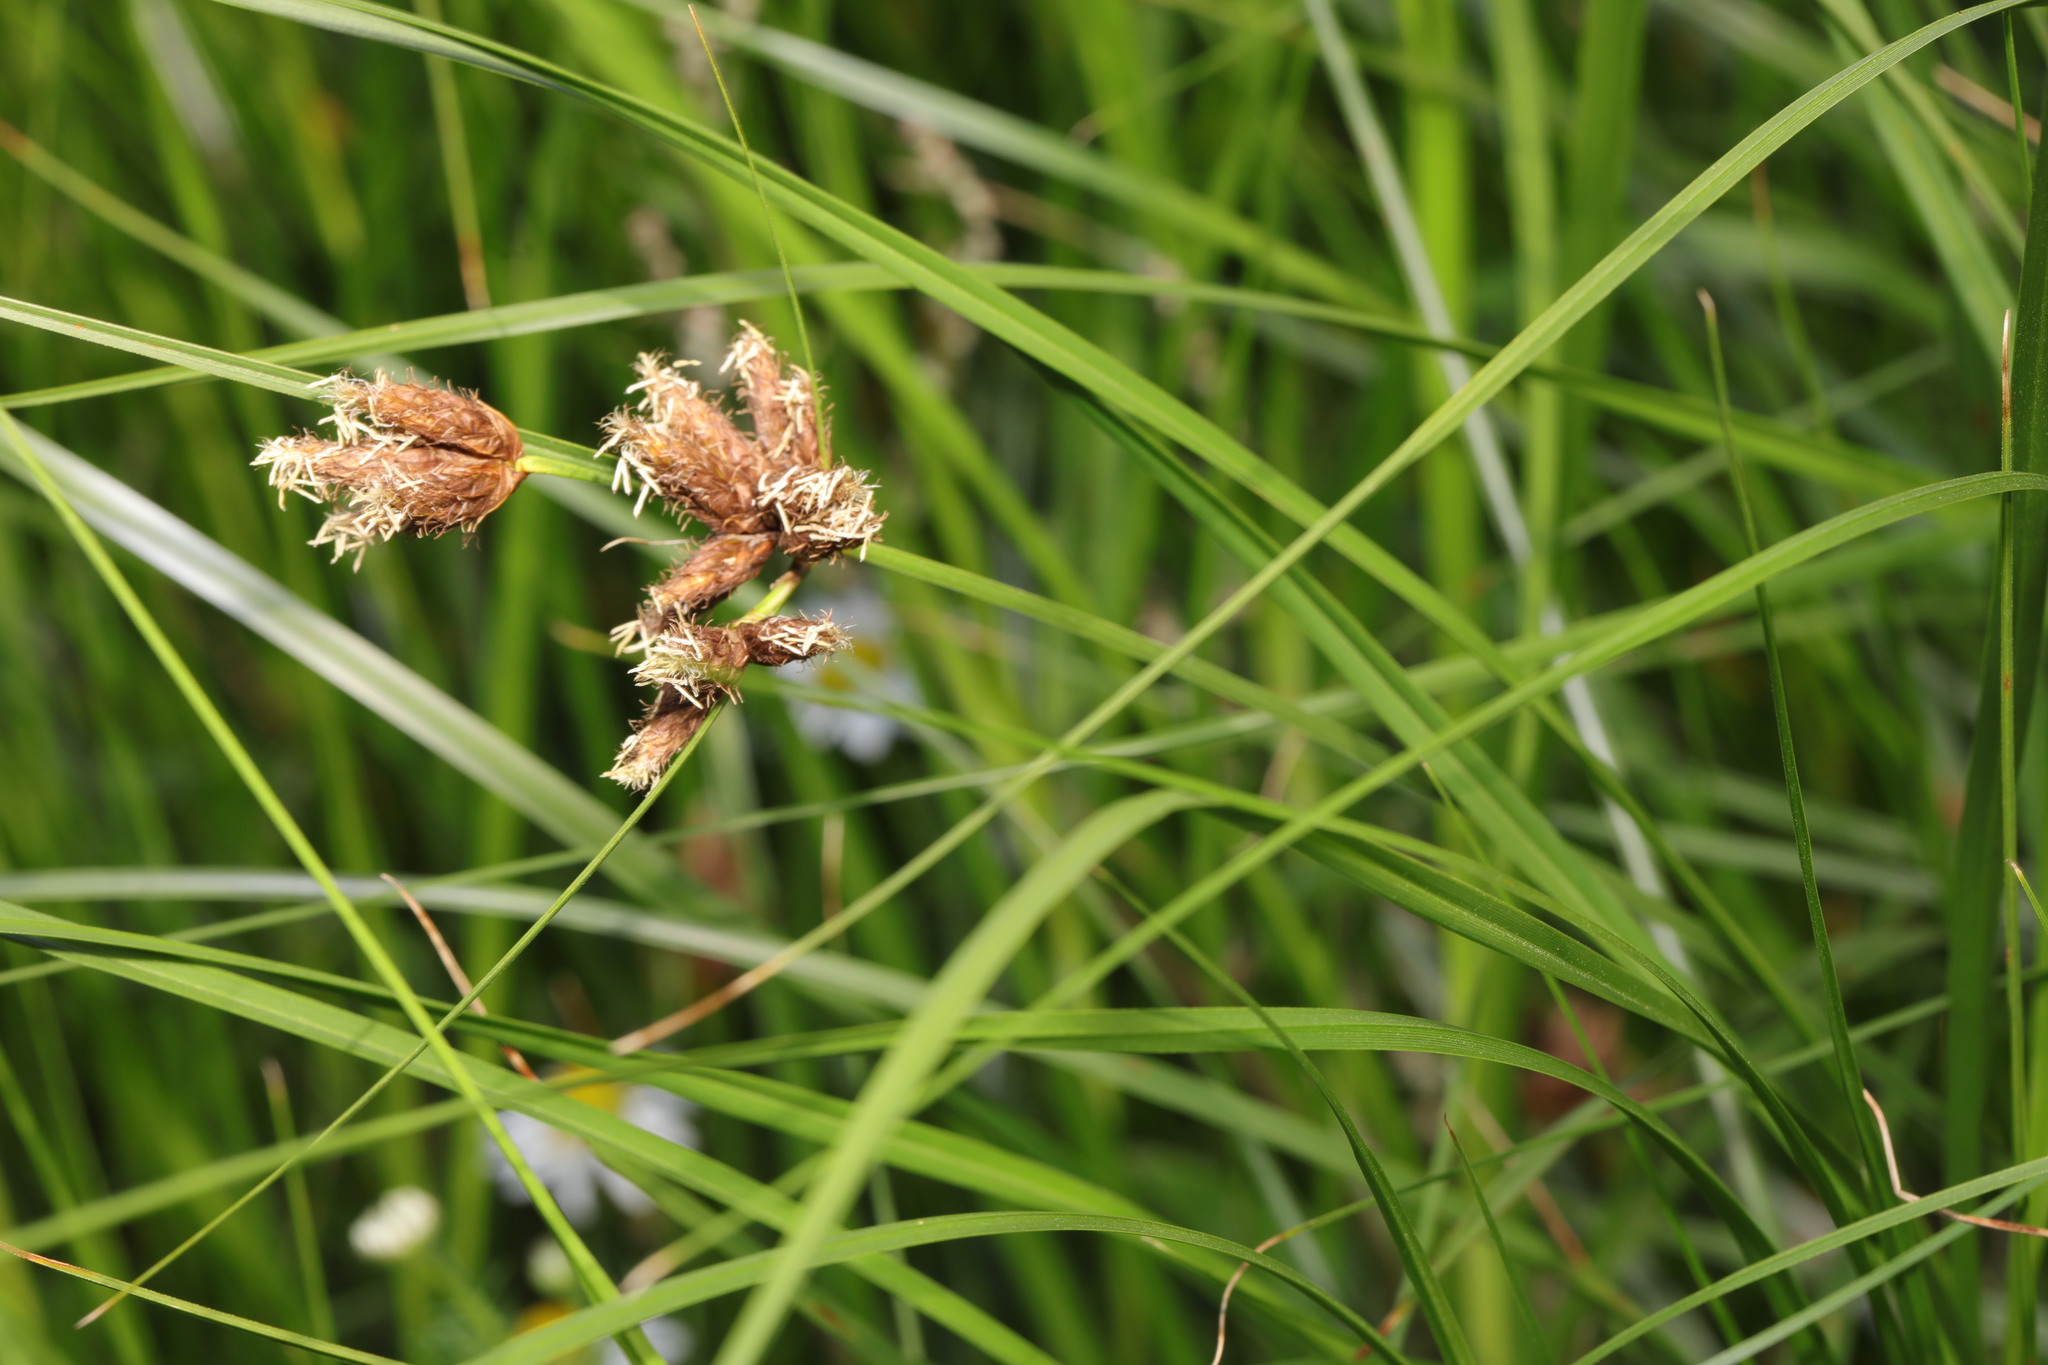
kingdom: Plantae
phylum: Tracheophyta
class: Liliopsida
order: Poales
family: Cyperaceae
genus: Bolboschoenus
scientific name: Bolboschoenus maritimus
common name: Sea club-rush
